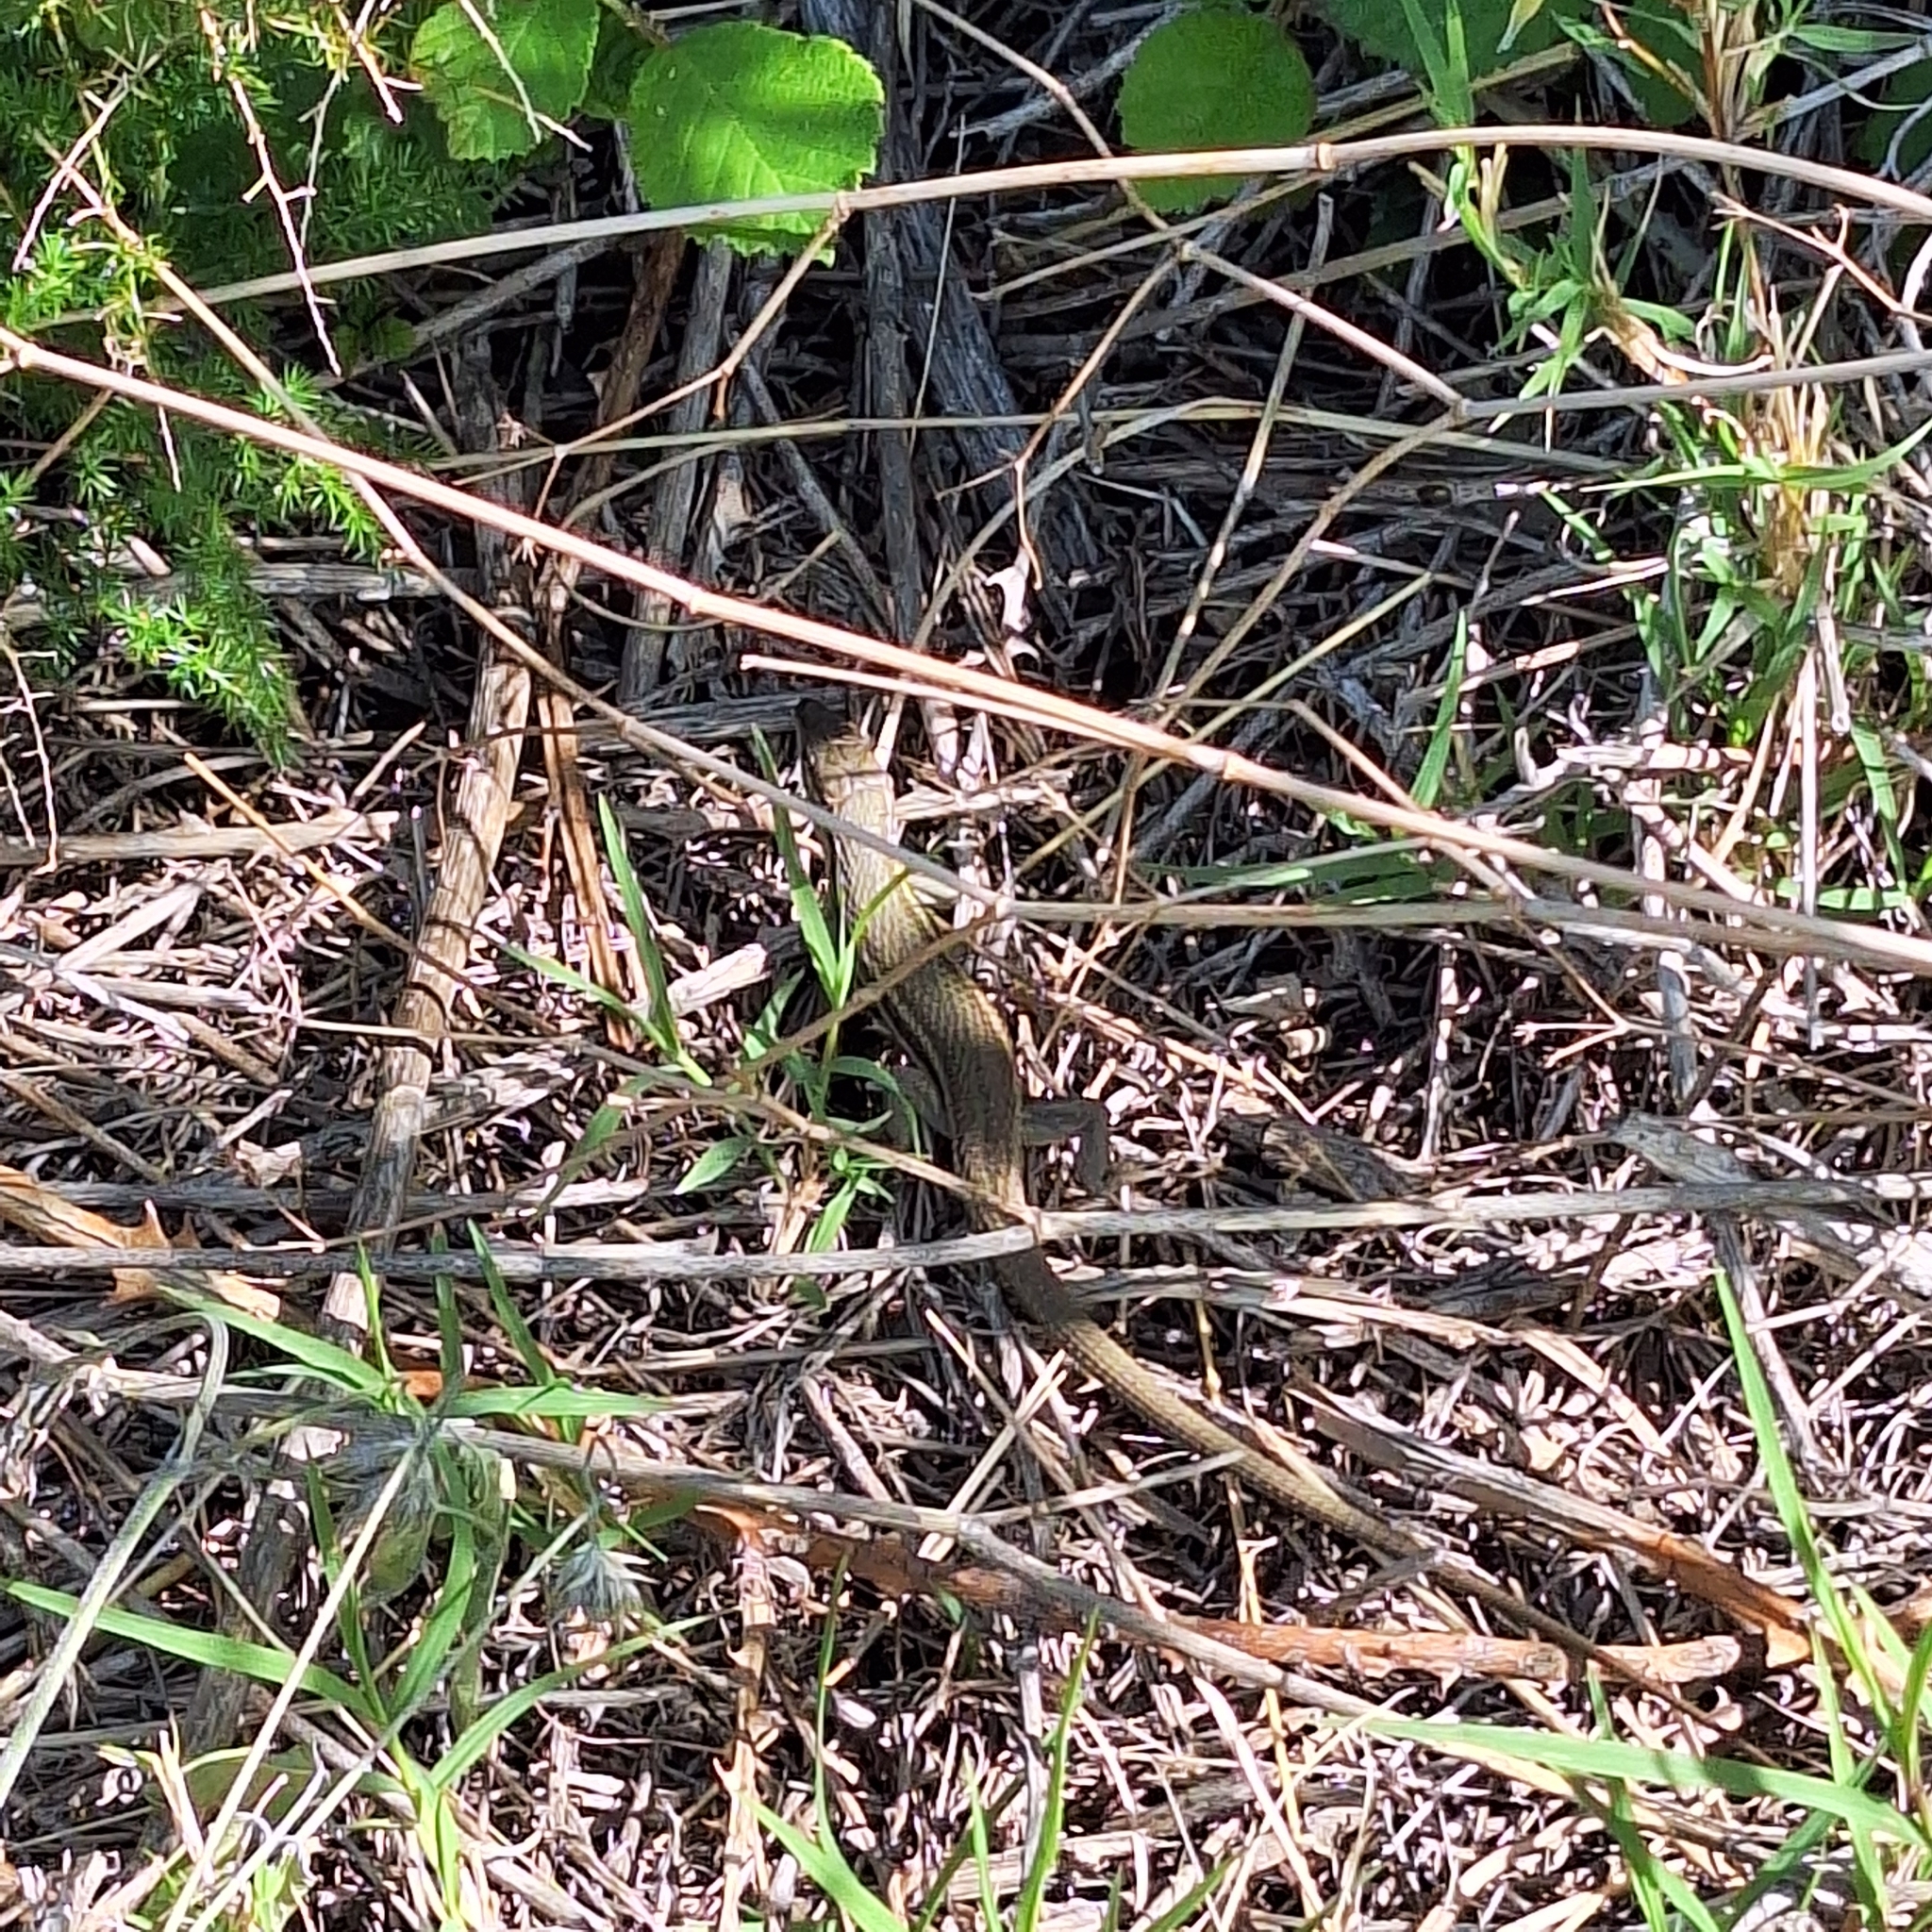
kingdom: Animalia
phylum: Chordata
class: Squamata
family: Lacertidae
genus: Psammodromus
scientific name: Psammodromus algirus
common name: Algerian psammodromus
